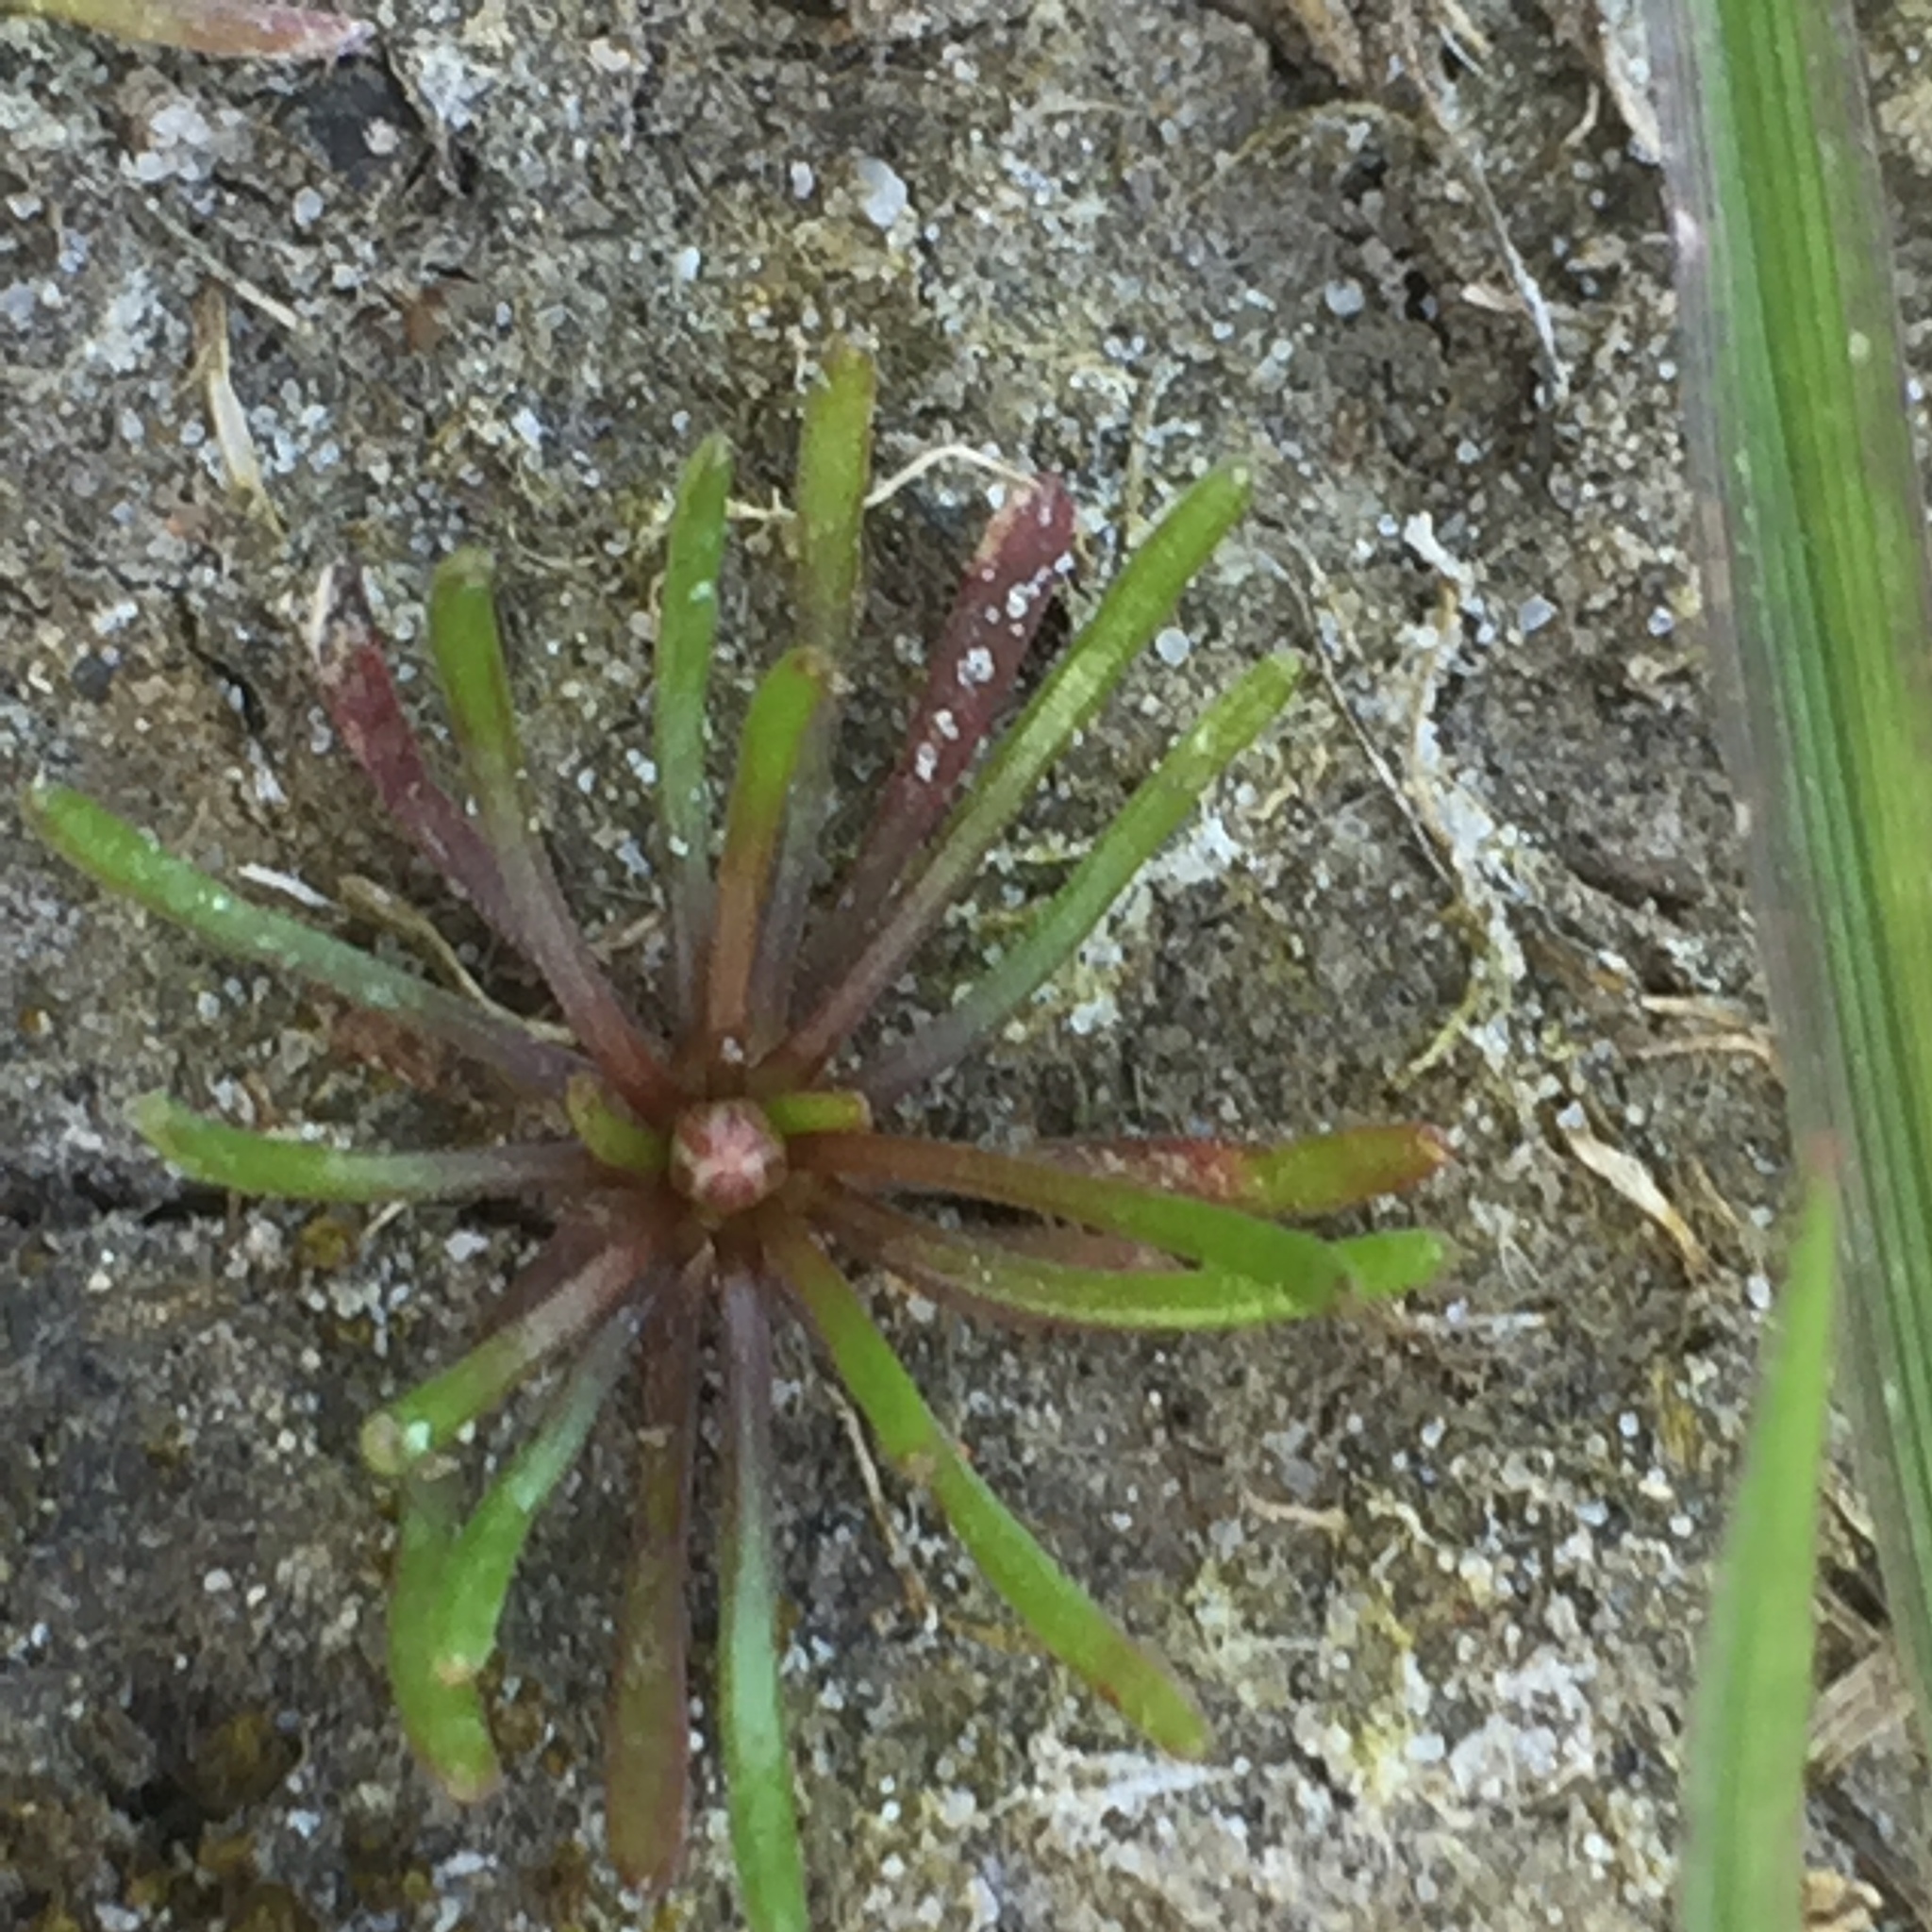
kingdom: Plantae
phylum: Tracheophyta
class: Magnoliopsida
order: Ranunculales
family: Ranunculaceae
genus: Myosurus
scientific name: Myosurus minimus
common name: Mousetail
